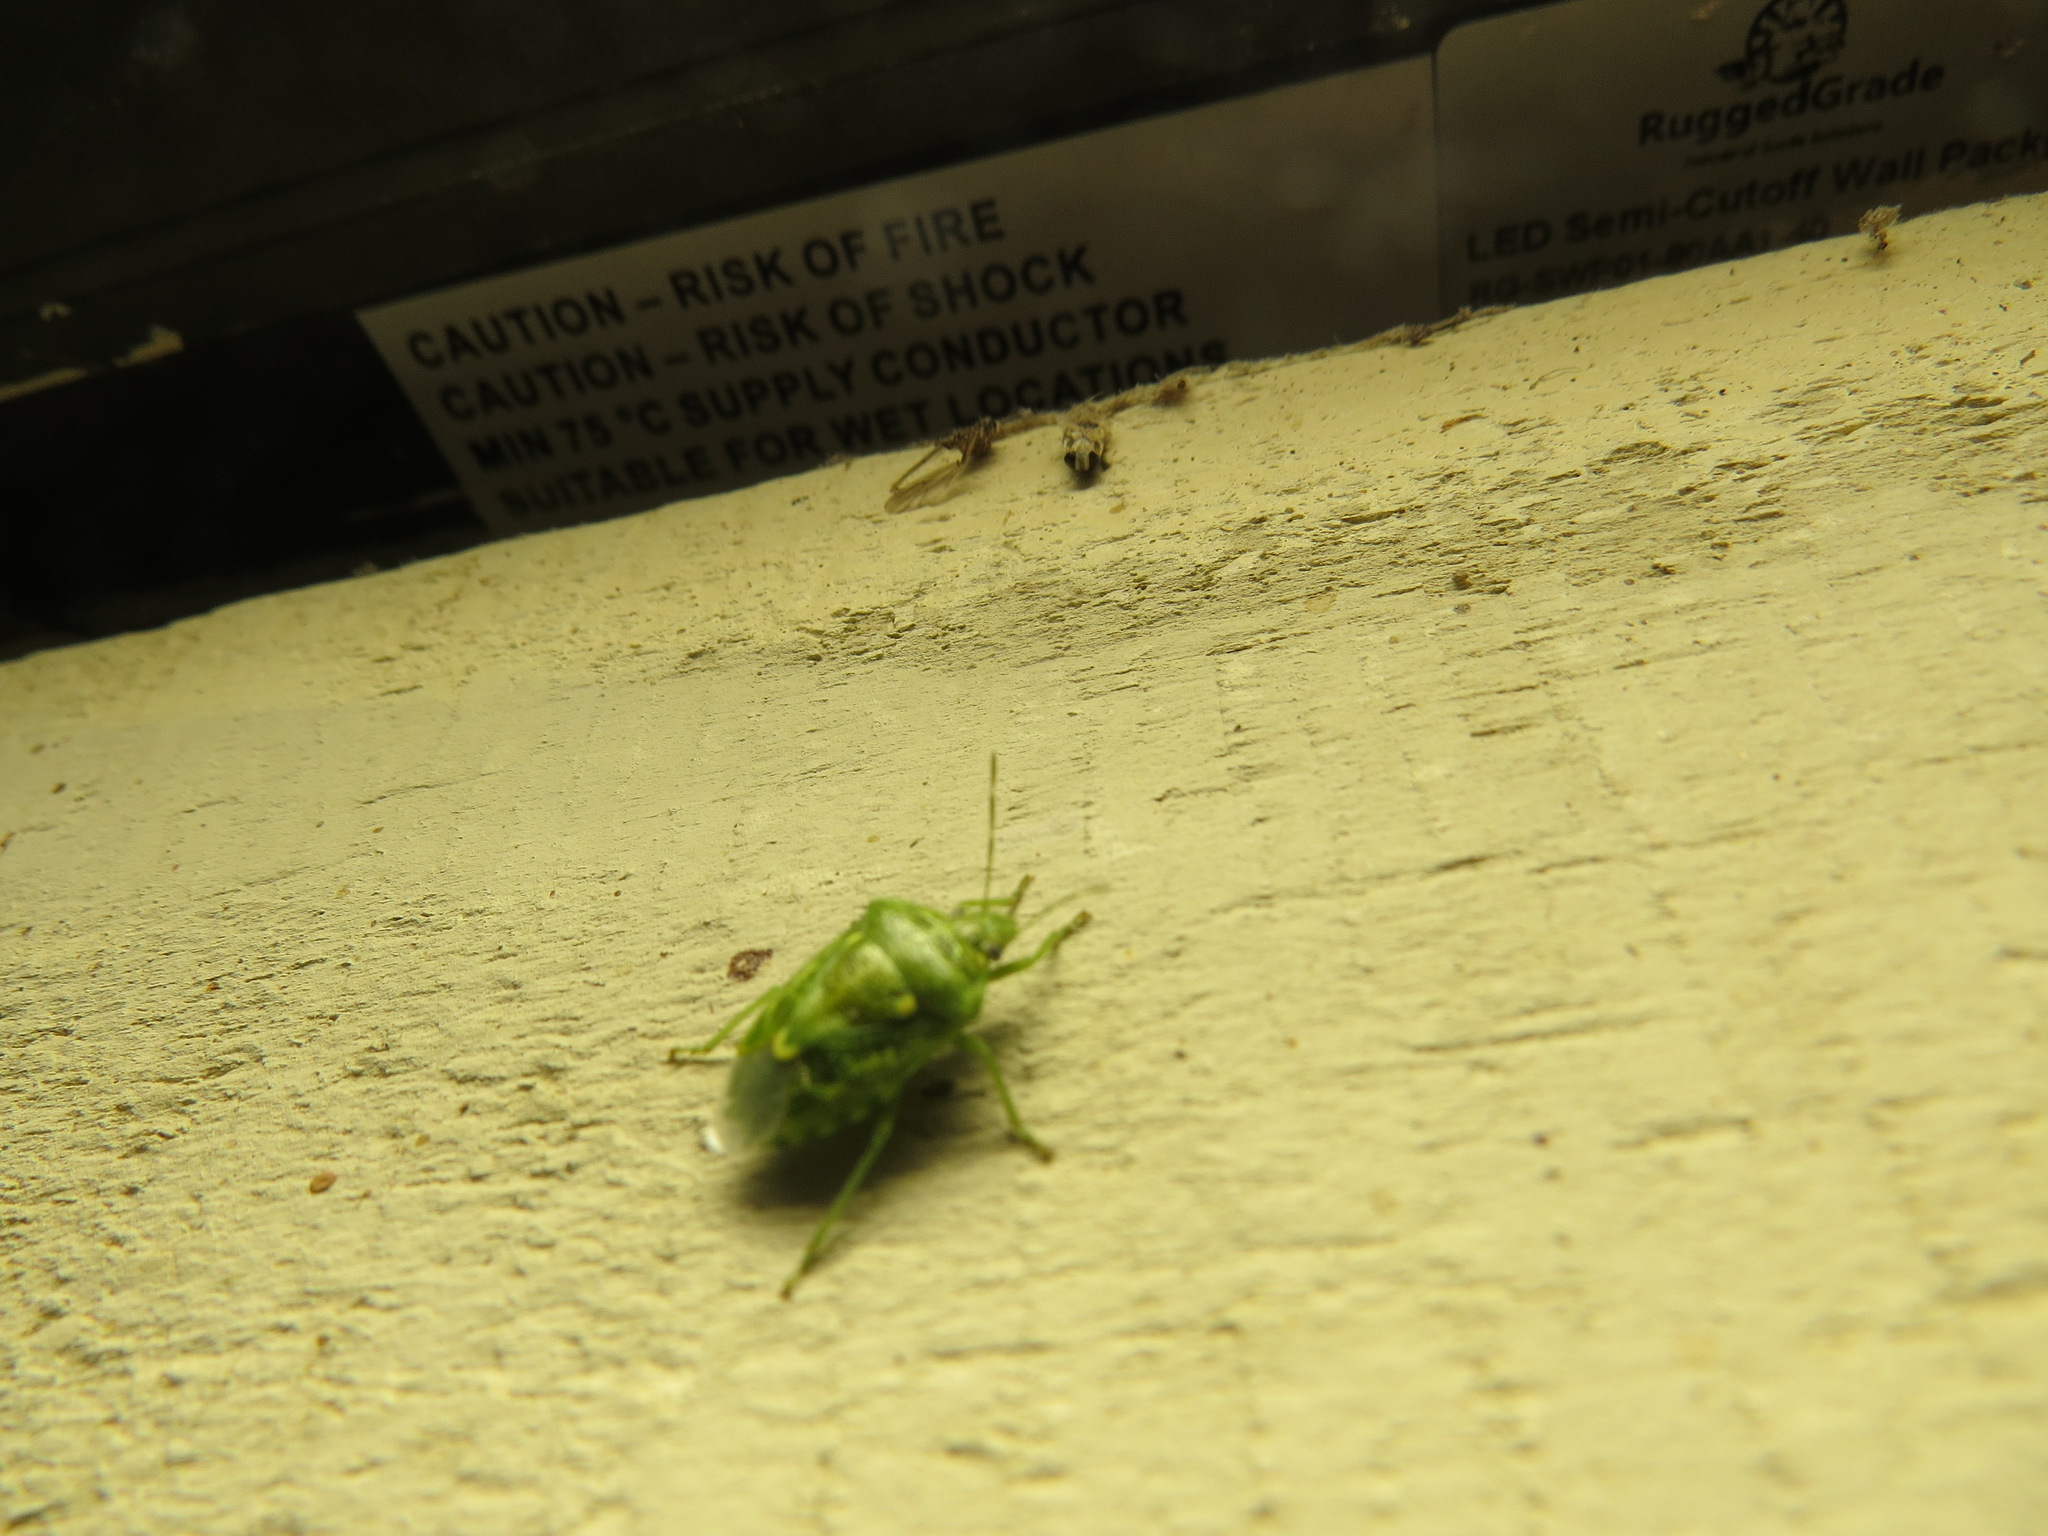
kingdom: Animalia
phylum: Arthropoda
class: Insecta
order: Hemiptera
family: Pentatomidae
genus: Banasa
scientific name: Banasa euchlora
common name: Cedar berry bug
